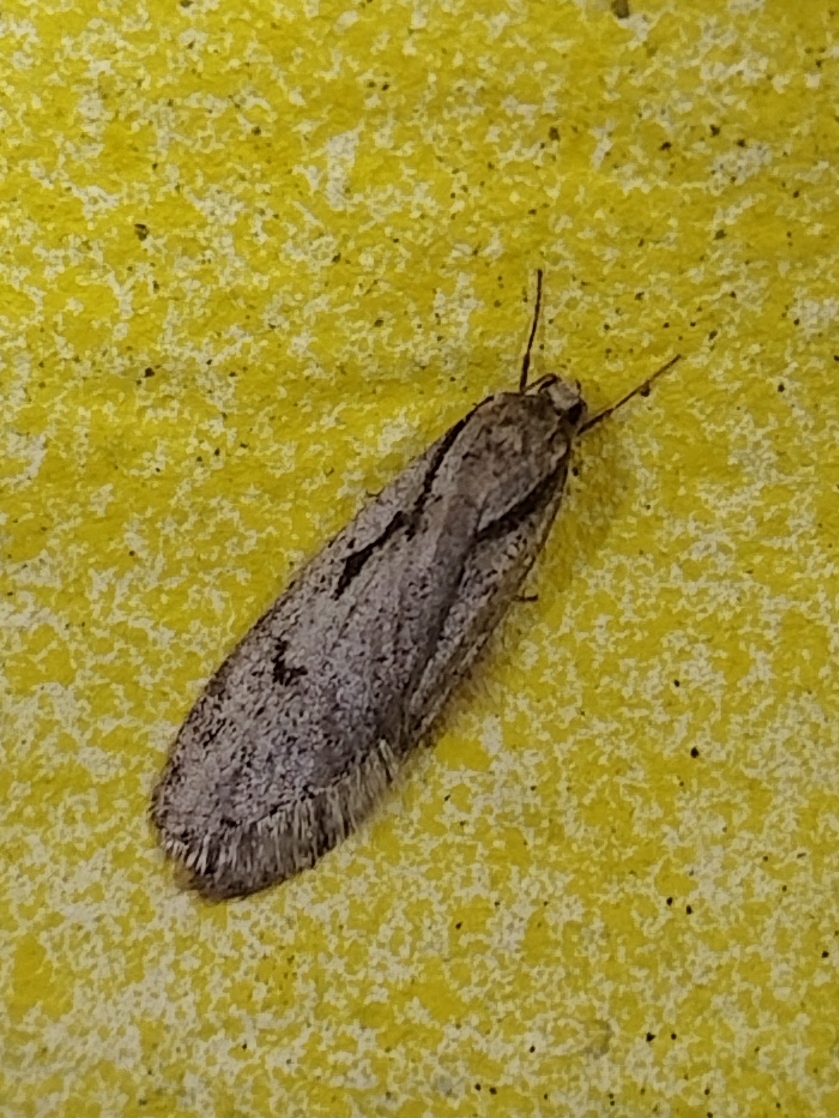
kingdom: Animalia
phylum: Arthropoda
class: Insecta
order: Lepidoptera
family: Depressariidae
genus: Semioscopis
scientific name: Semioscopis avellanella
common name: Early flat-body
